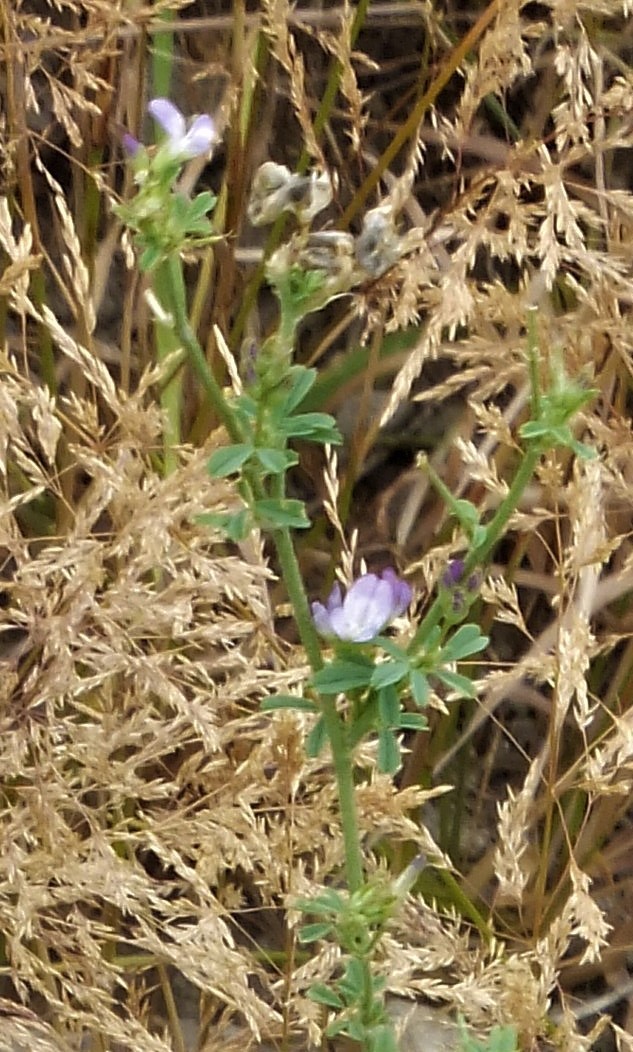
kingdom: Plantae
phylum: Tracheophyta
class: Magnoliopsida
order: Fabales
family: Fabaceae
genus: Medicago
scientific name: Medicago sativa
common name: Alfalfa
